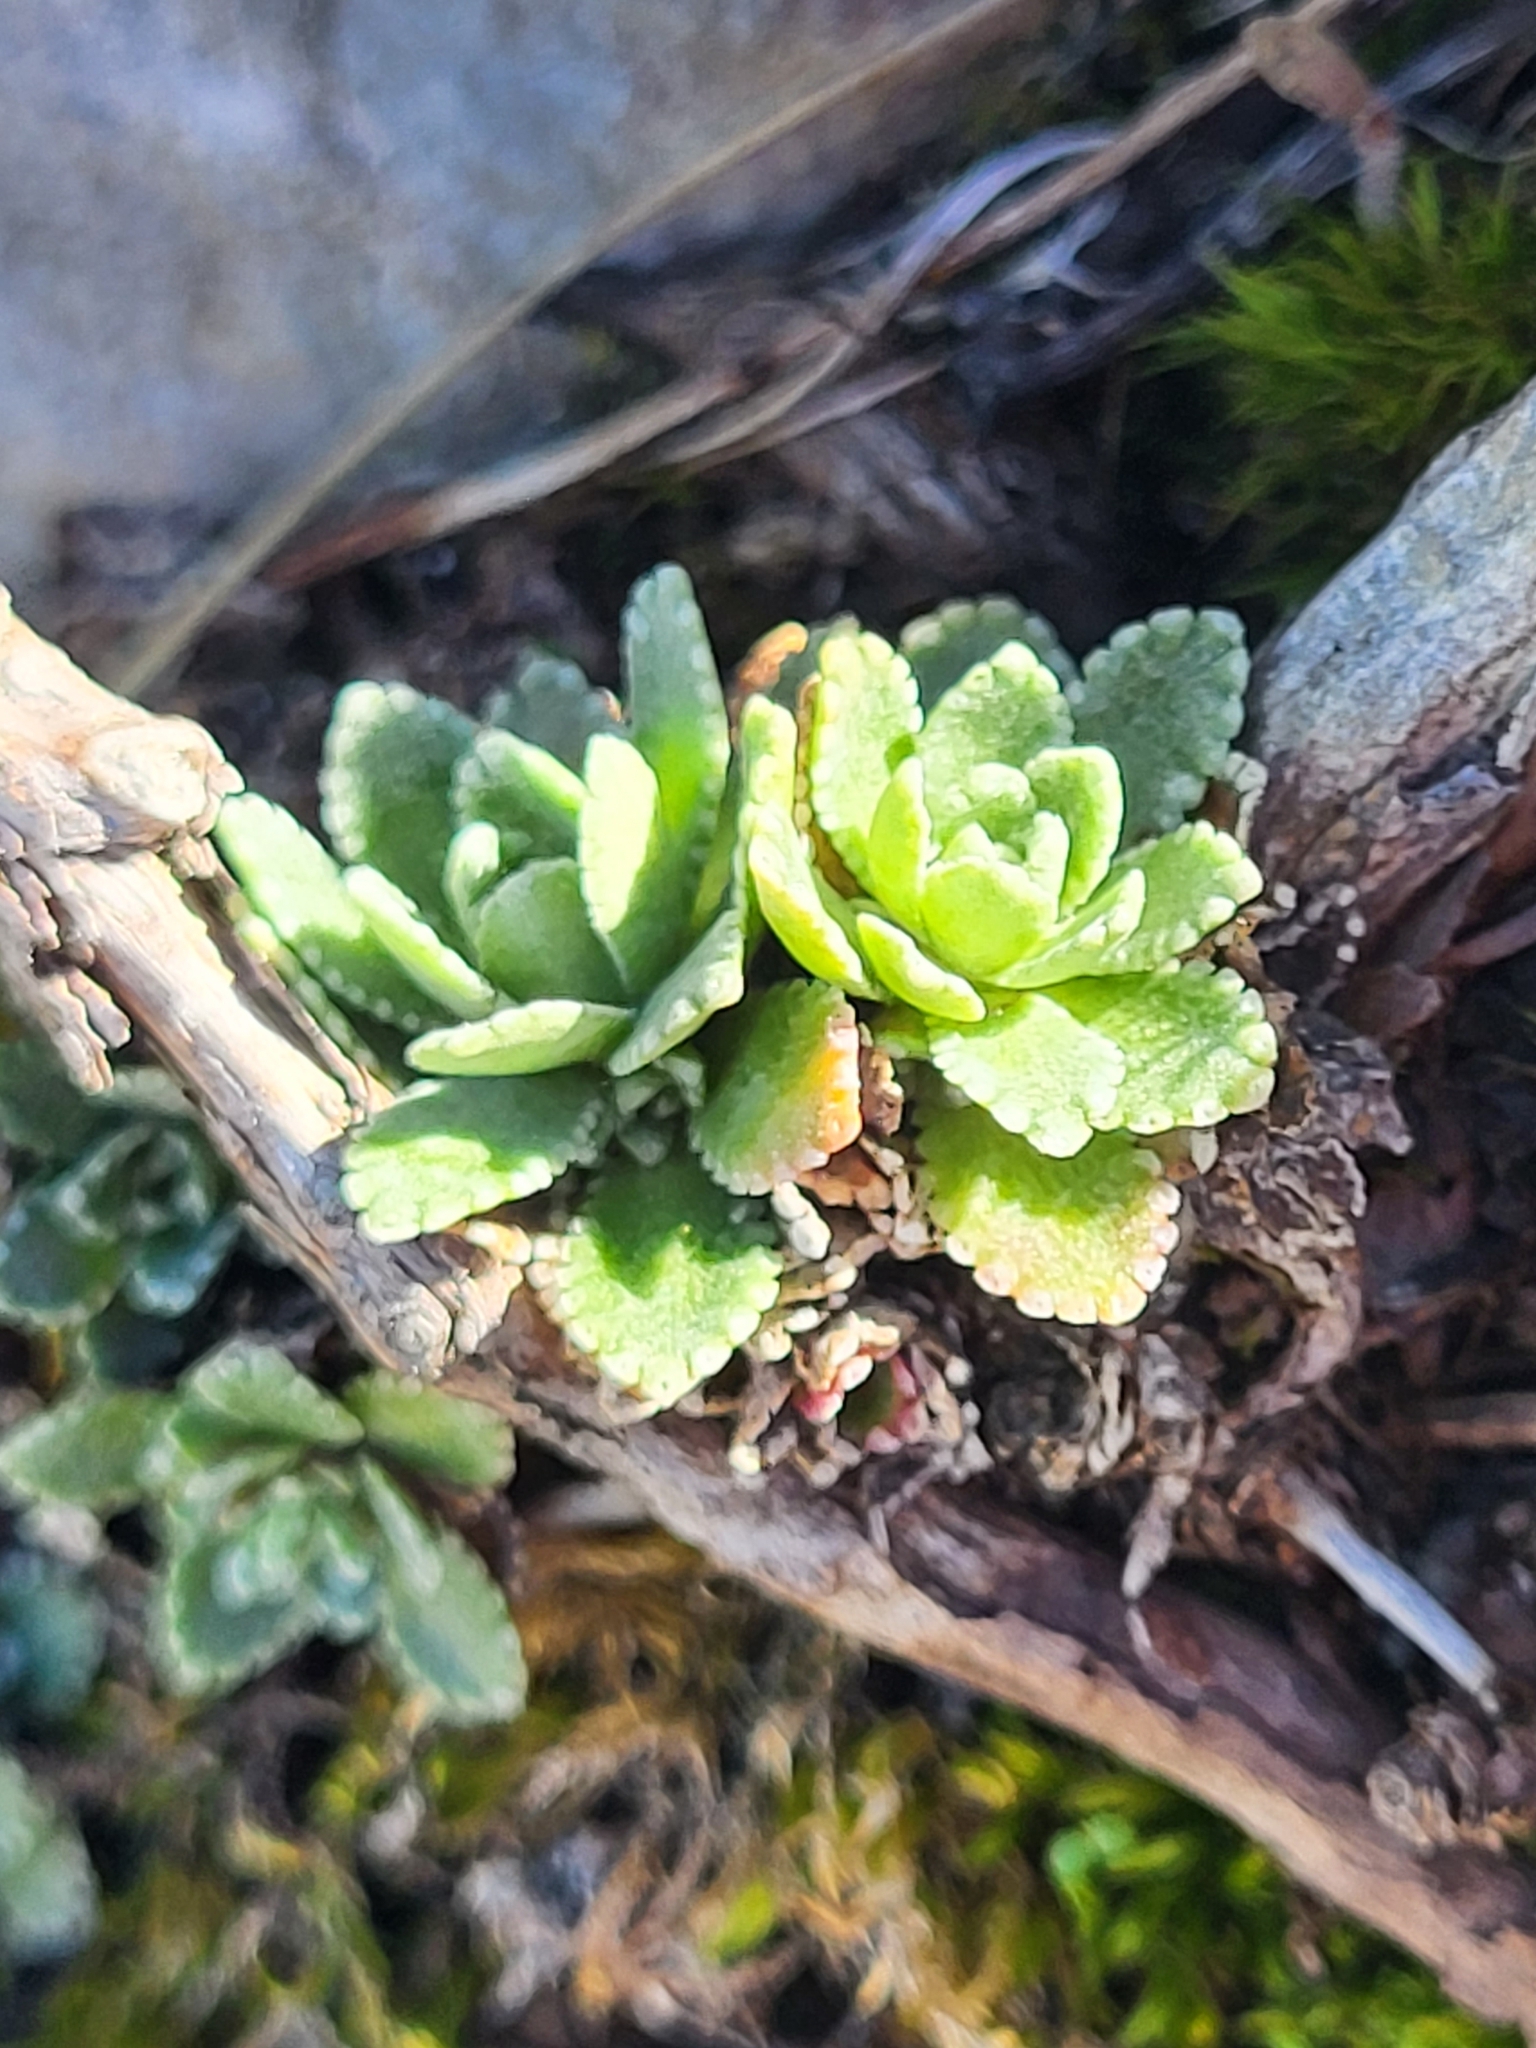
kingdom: Plantae
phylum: Tracheophyta
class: Magnoliopsida
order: Saxifragales
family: Saxifragaceae
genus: Saxifraga
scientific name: Saxifraga paniculata
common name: Livelong saxifrage
